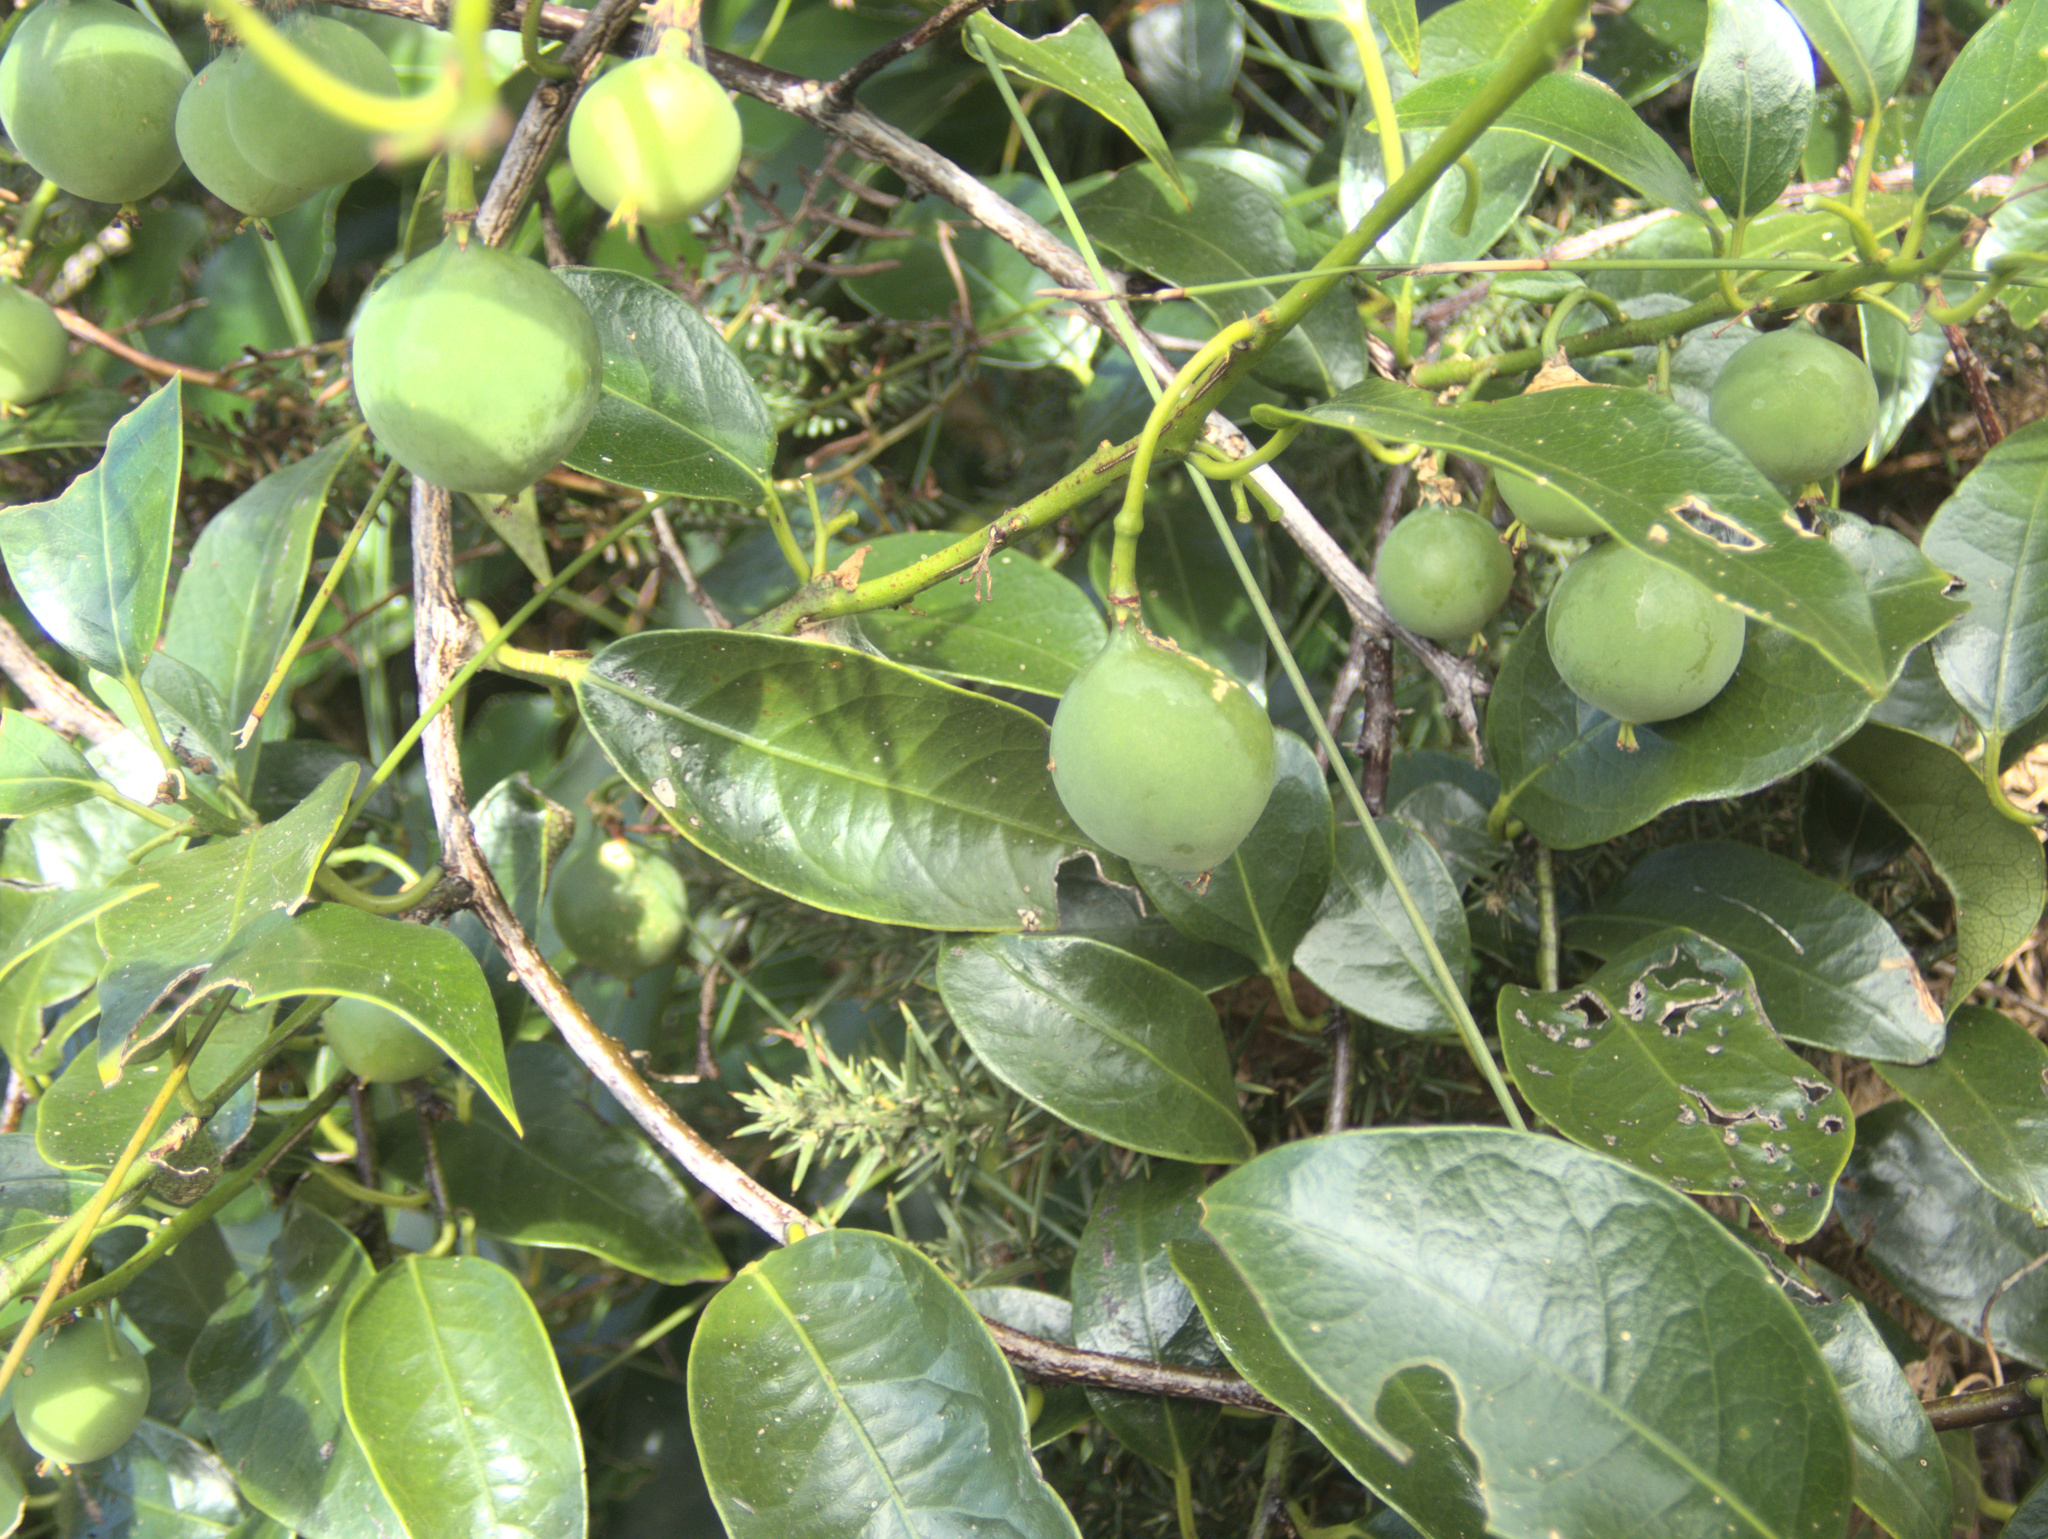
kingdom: Plantae
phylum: Tracheophyta
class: Magnoliopsida
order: Malpighiales
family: Passifloraceae
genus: Passiflora
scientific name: Passiflora tetrandra
